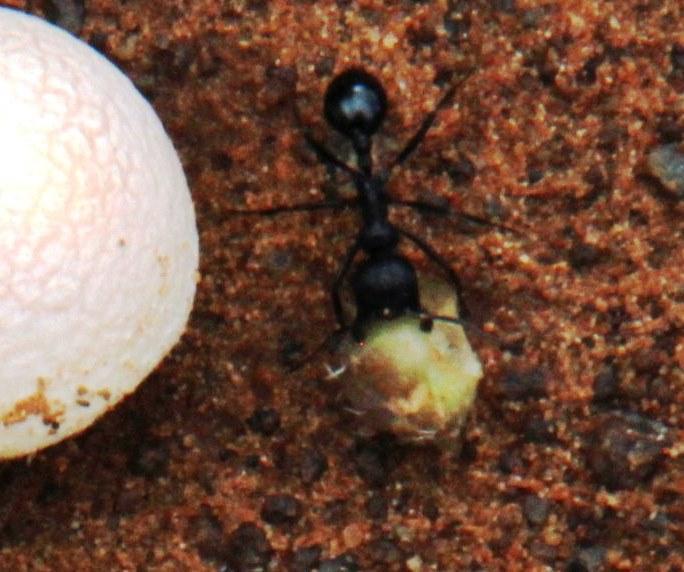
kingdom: Animalia
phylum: Arthropoda
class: Insecta
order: Hymenoptera
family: Formicidae
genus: Messor
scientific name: Messor capensis
